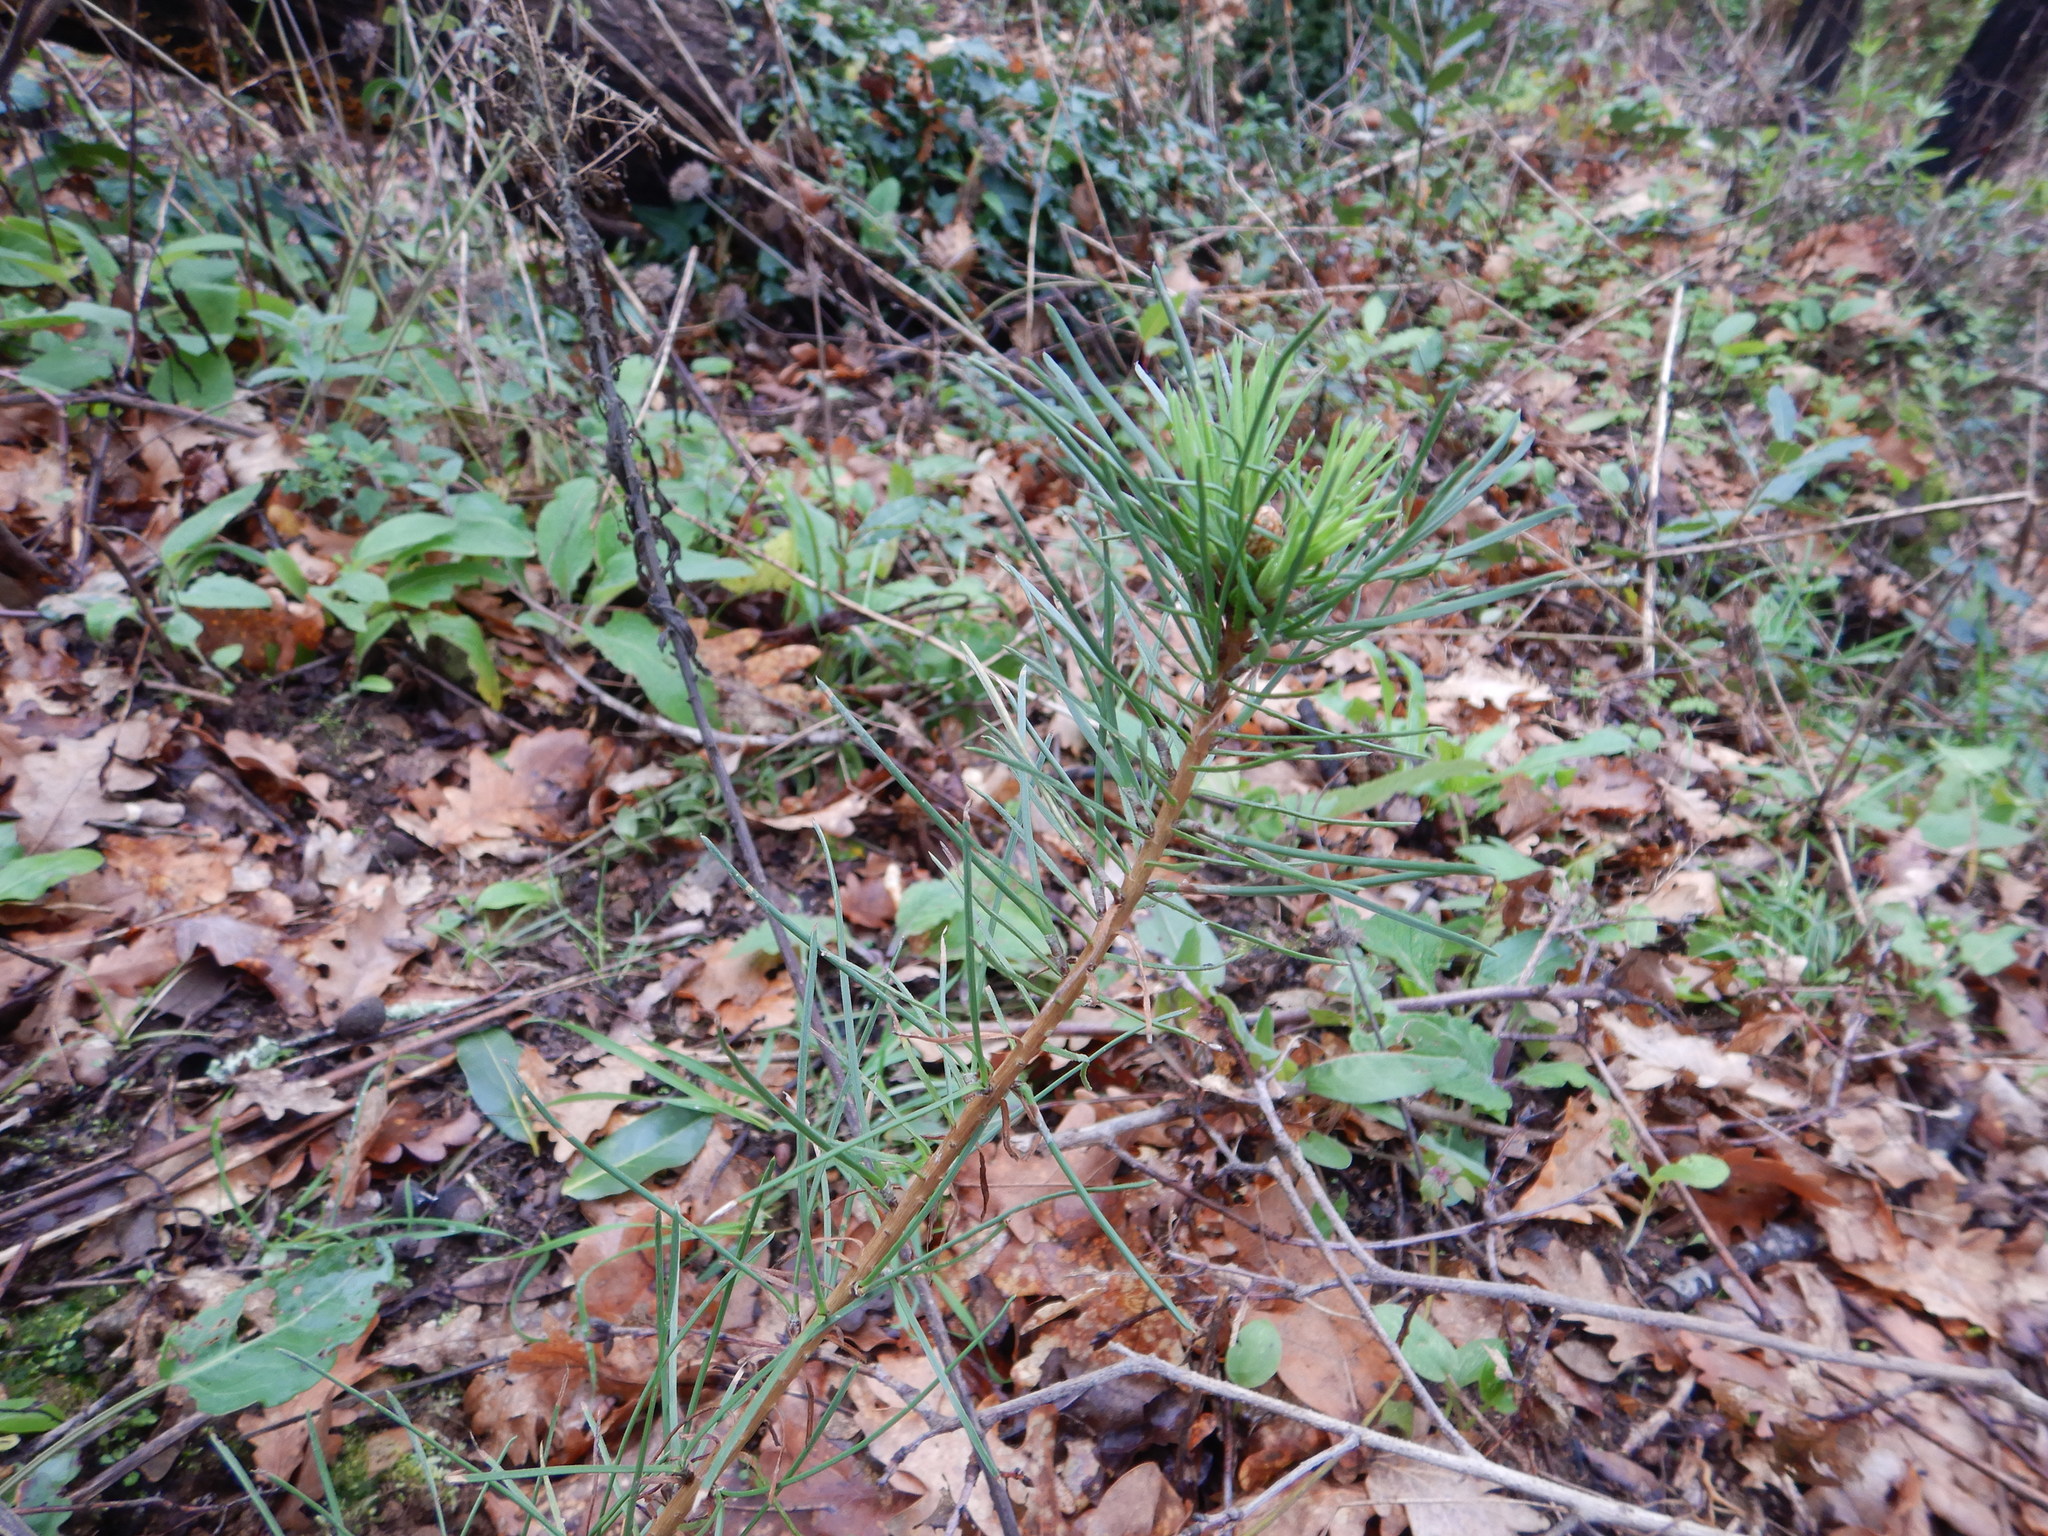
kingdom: Plantae
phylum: Tracheophyta
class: Pinopsida
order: Pinales
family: Pinaceae
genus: Pinus
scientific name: Pinus pinaster
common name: Maritime pine
